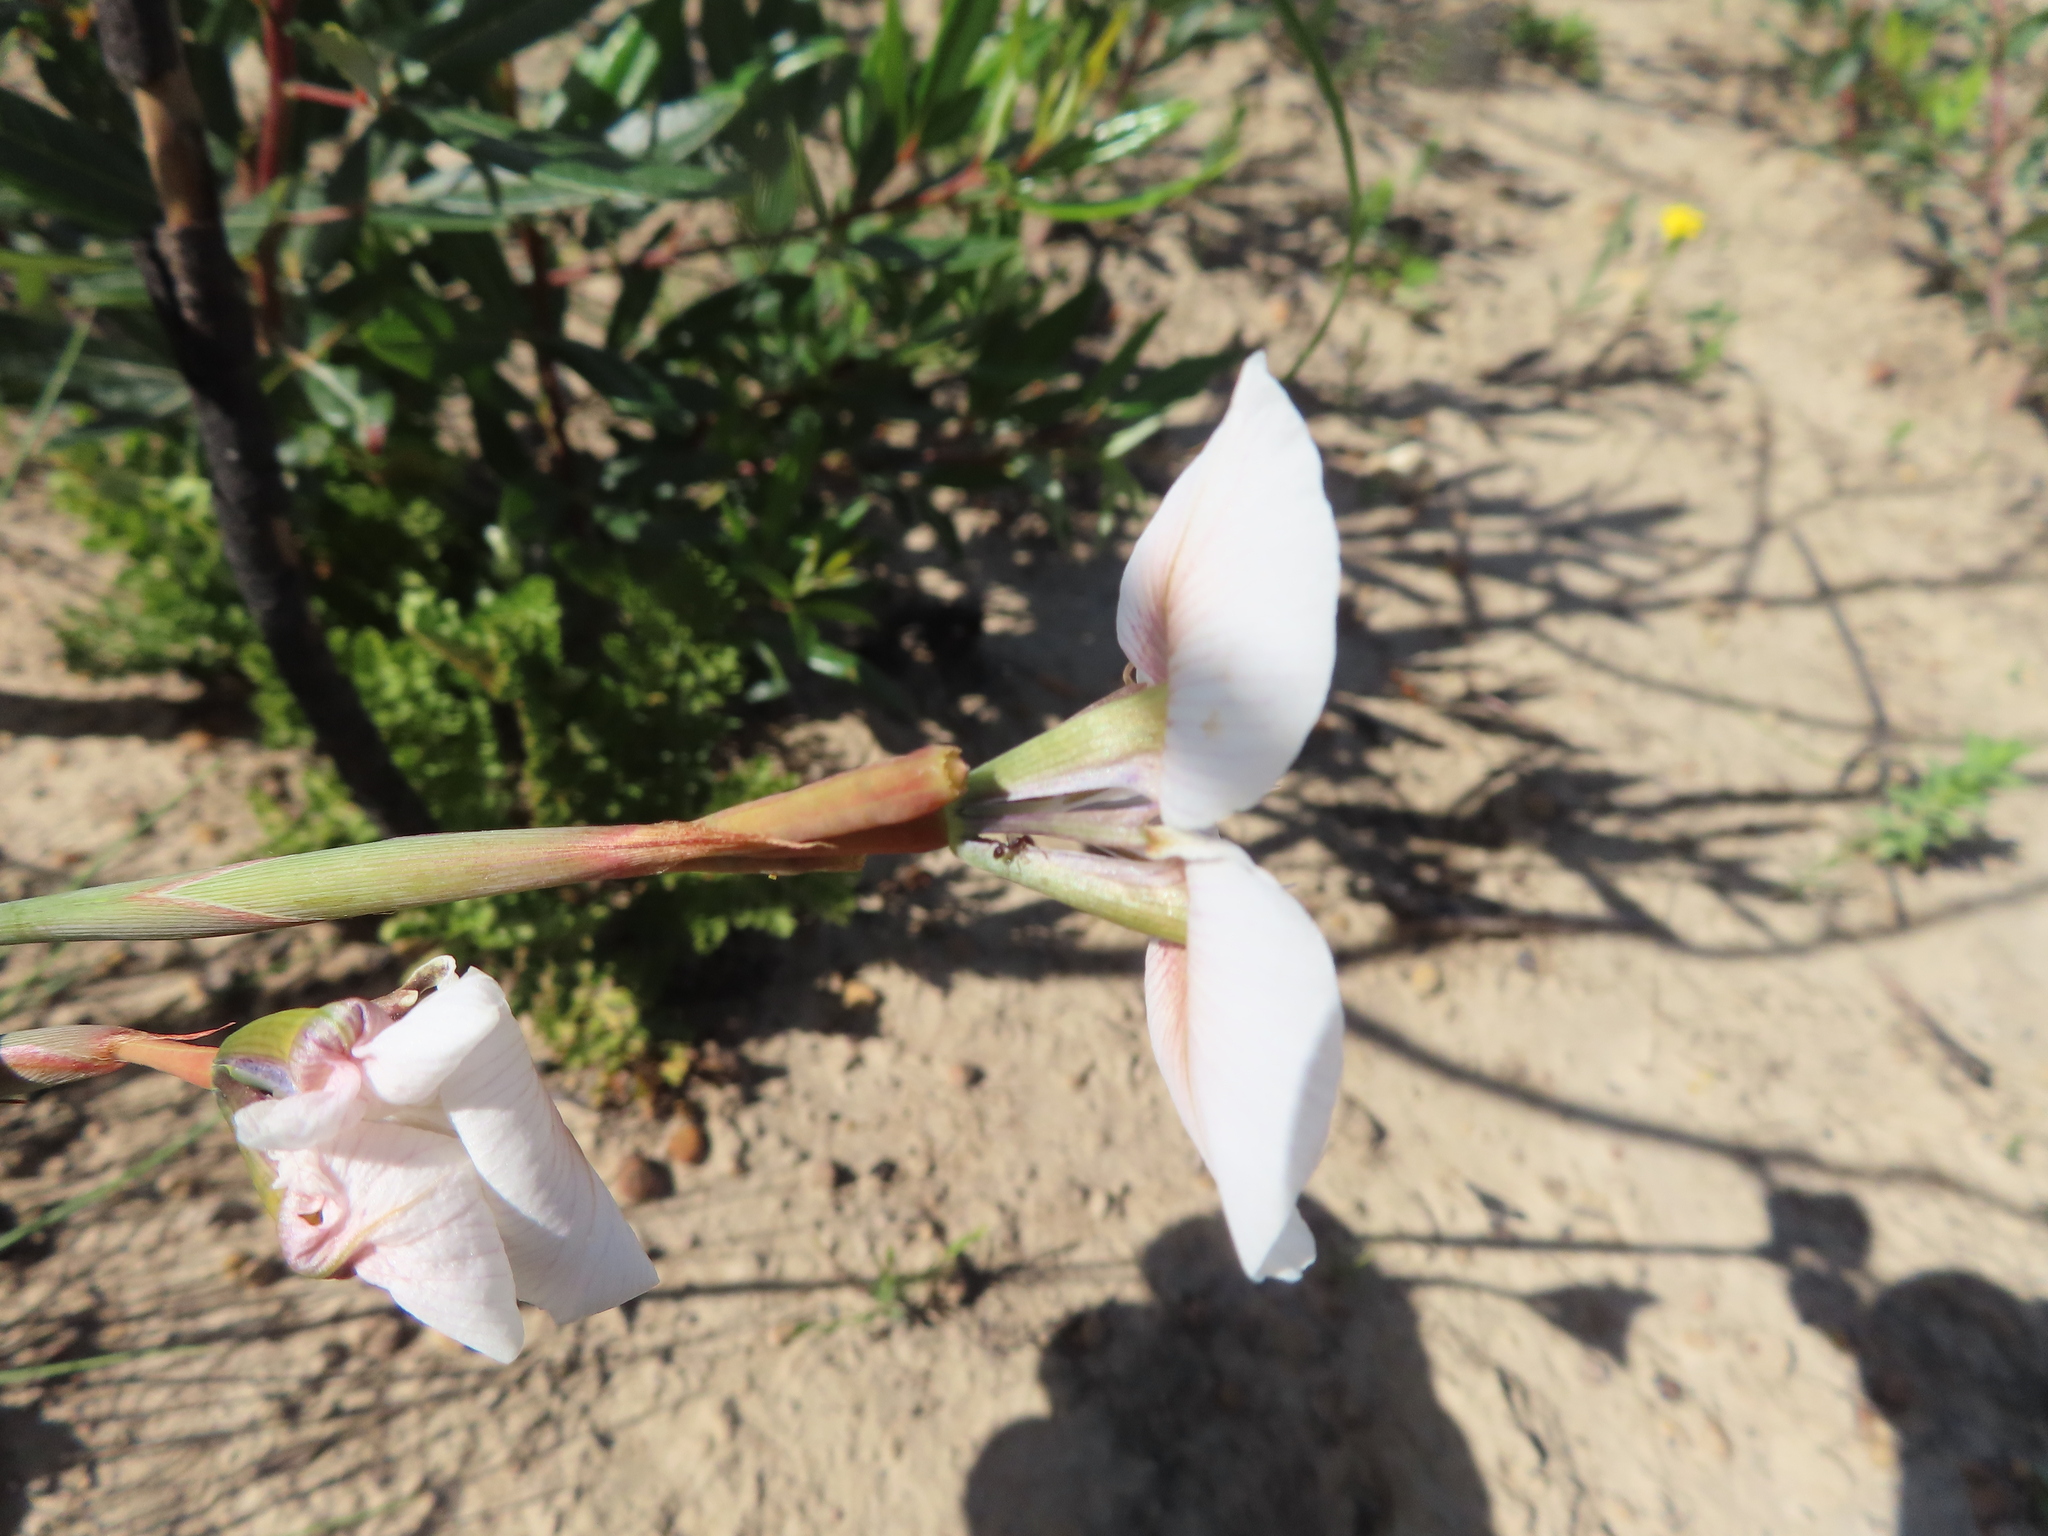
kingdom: Plantae
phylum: Tracheophyta
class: Liliopsida
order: Asparagales
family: Iridaceae
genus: Moraea
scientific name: Moraea villosa
